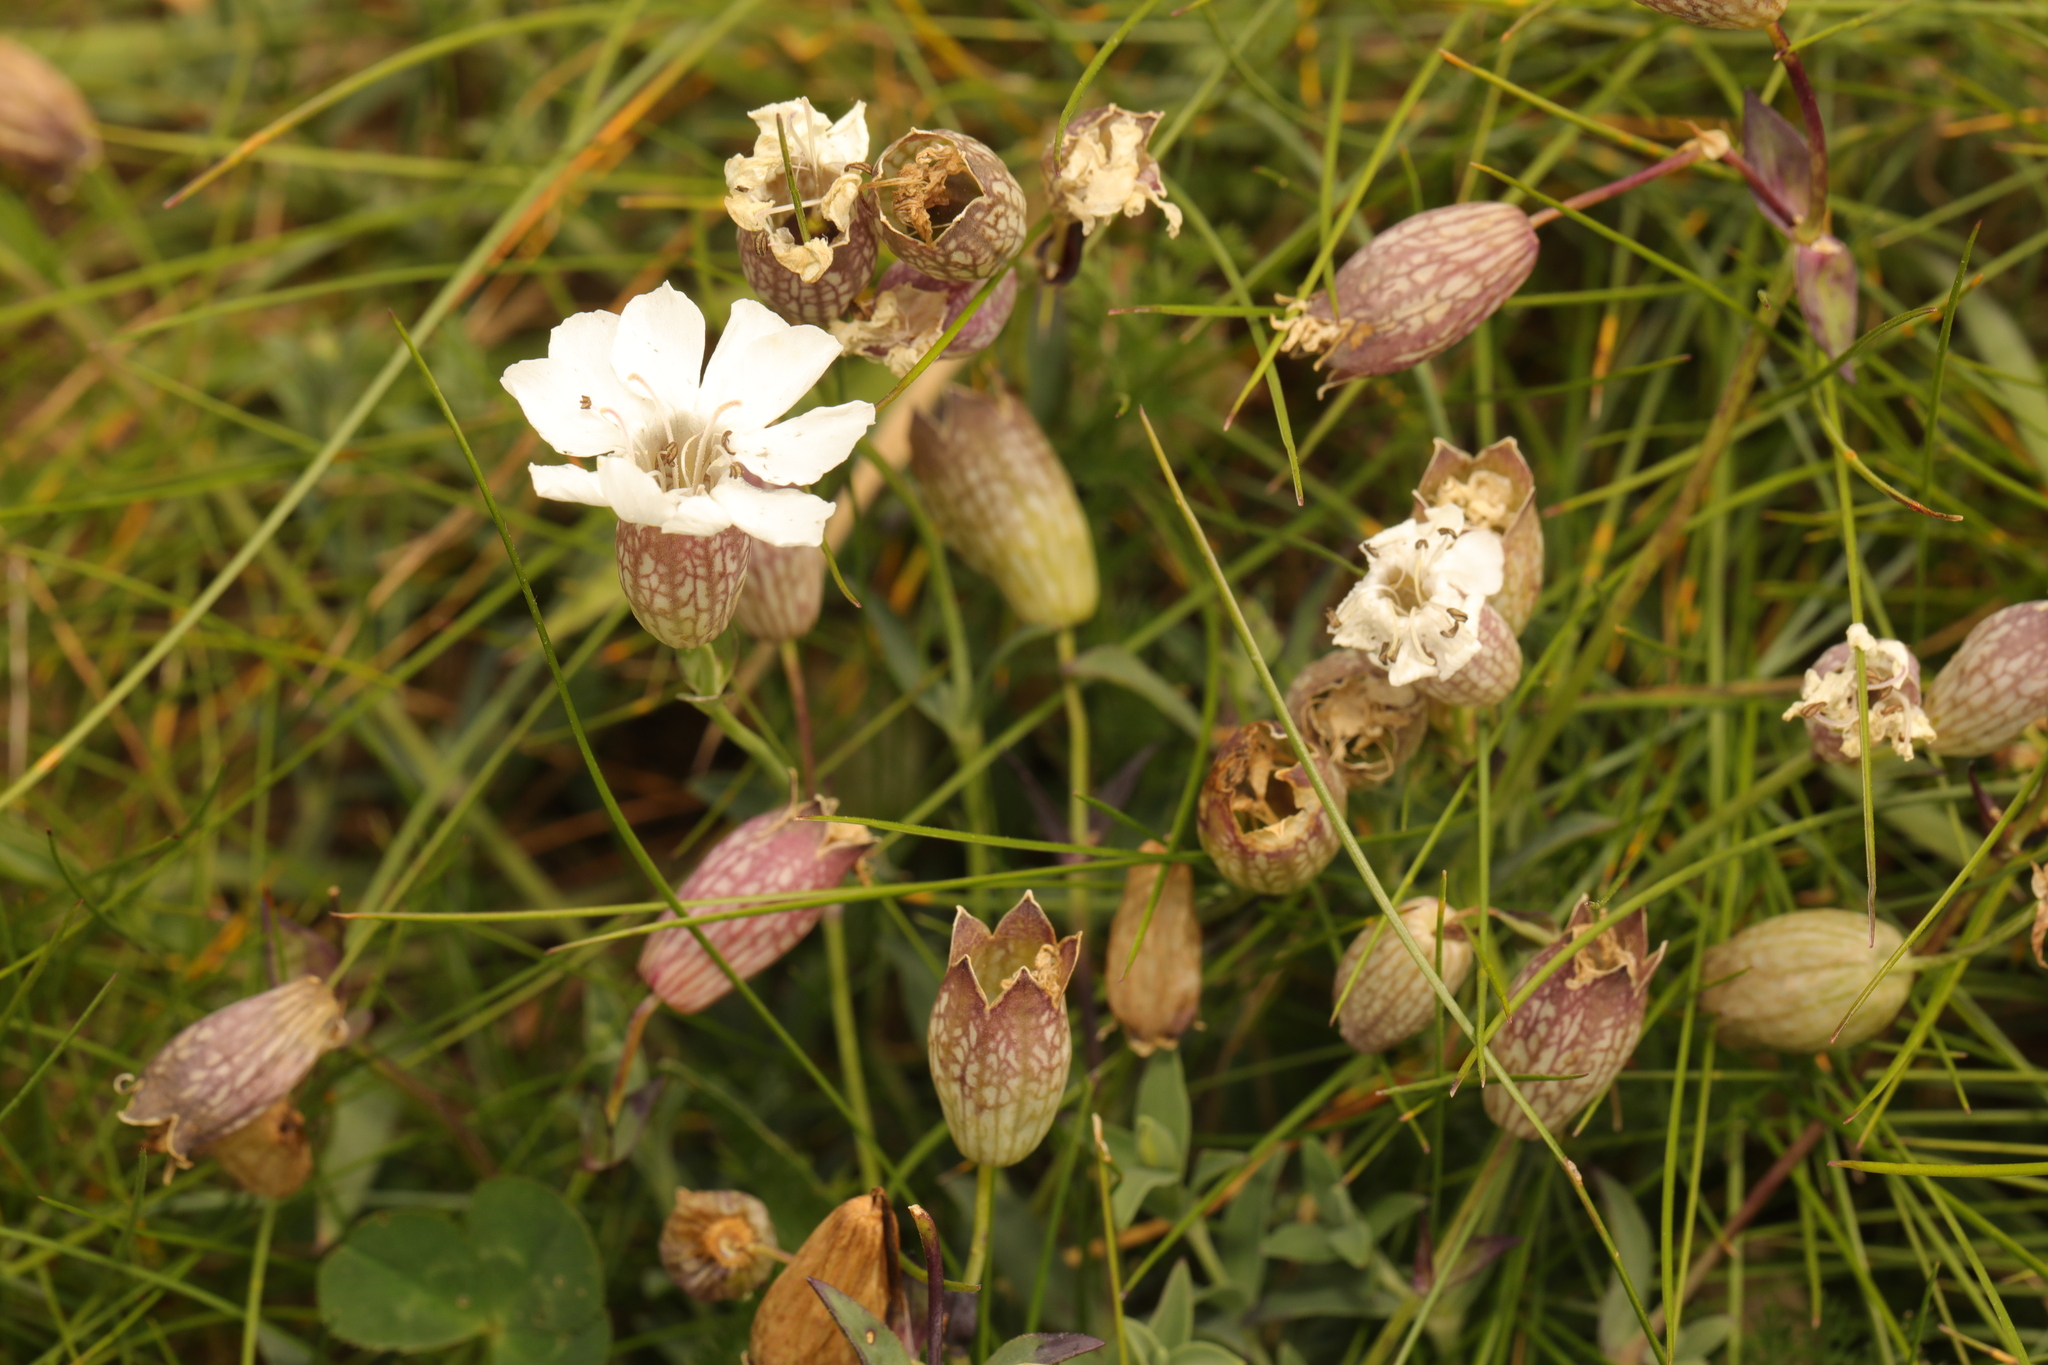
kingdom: Plantae
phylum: Tracheophyta
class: Magnoliopsida
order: Caryophyllales
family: Caryophyllaceae
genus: Silene
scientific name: Silene uniflora
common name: Sea campion
